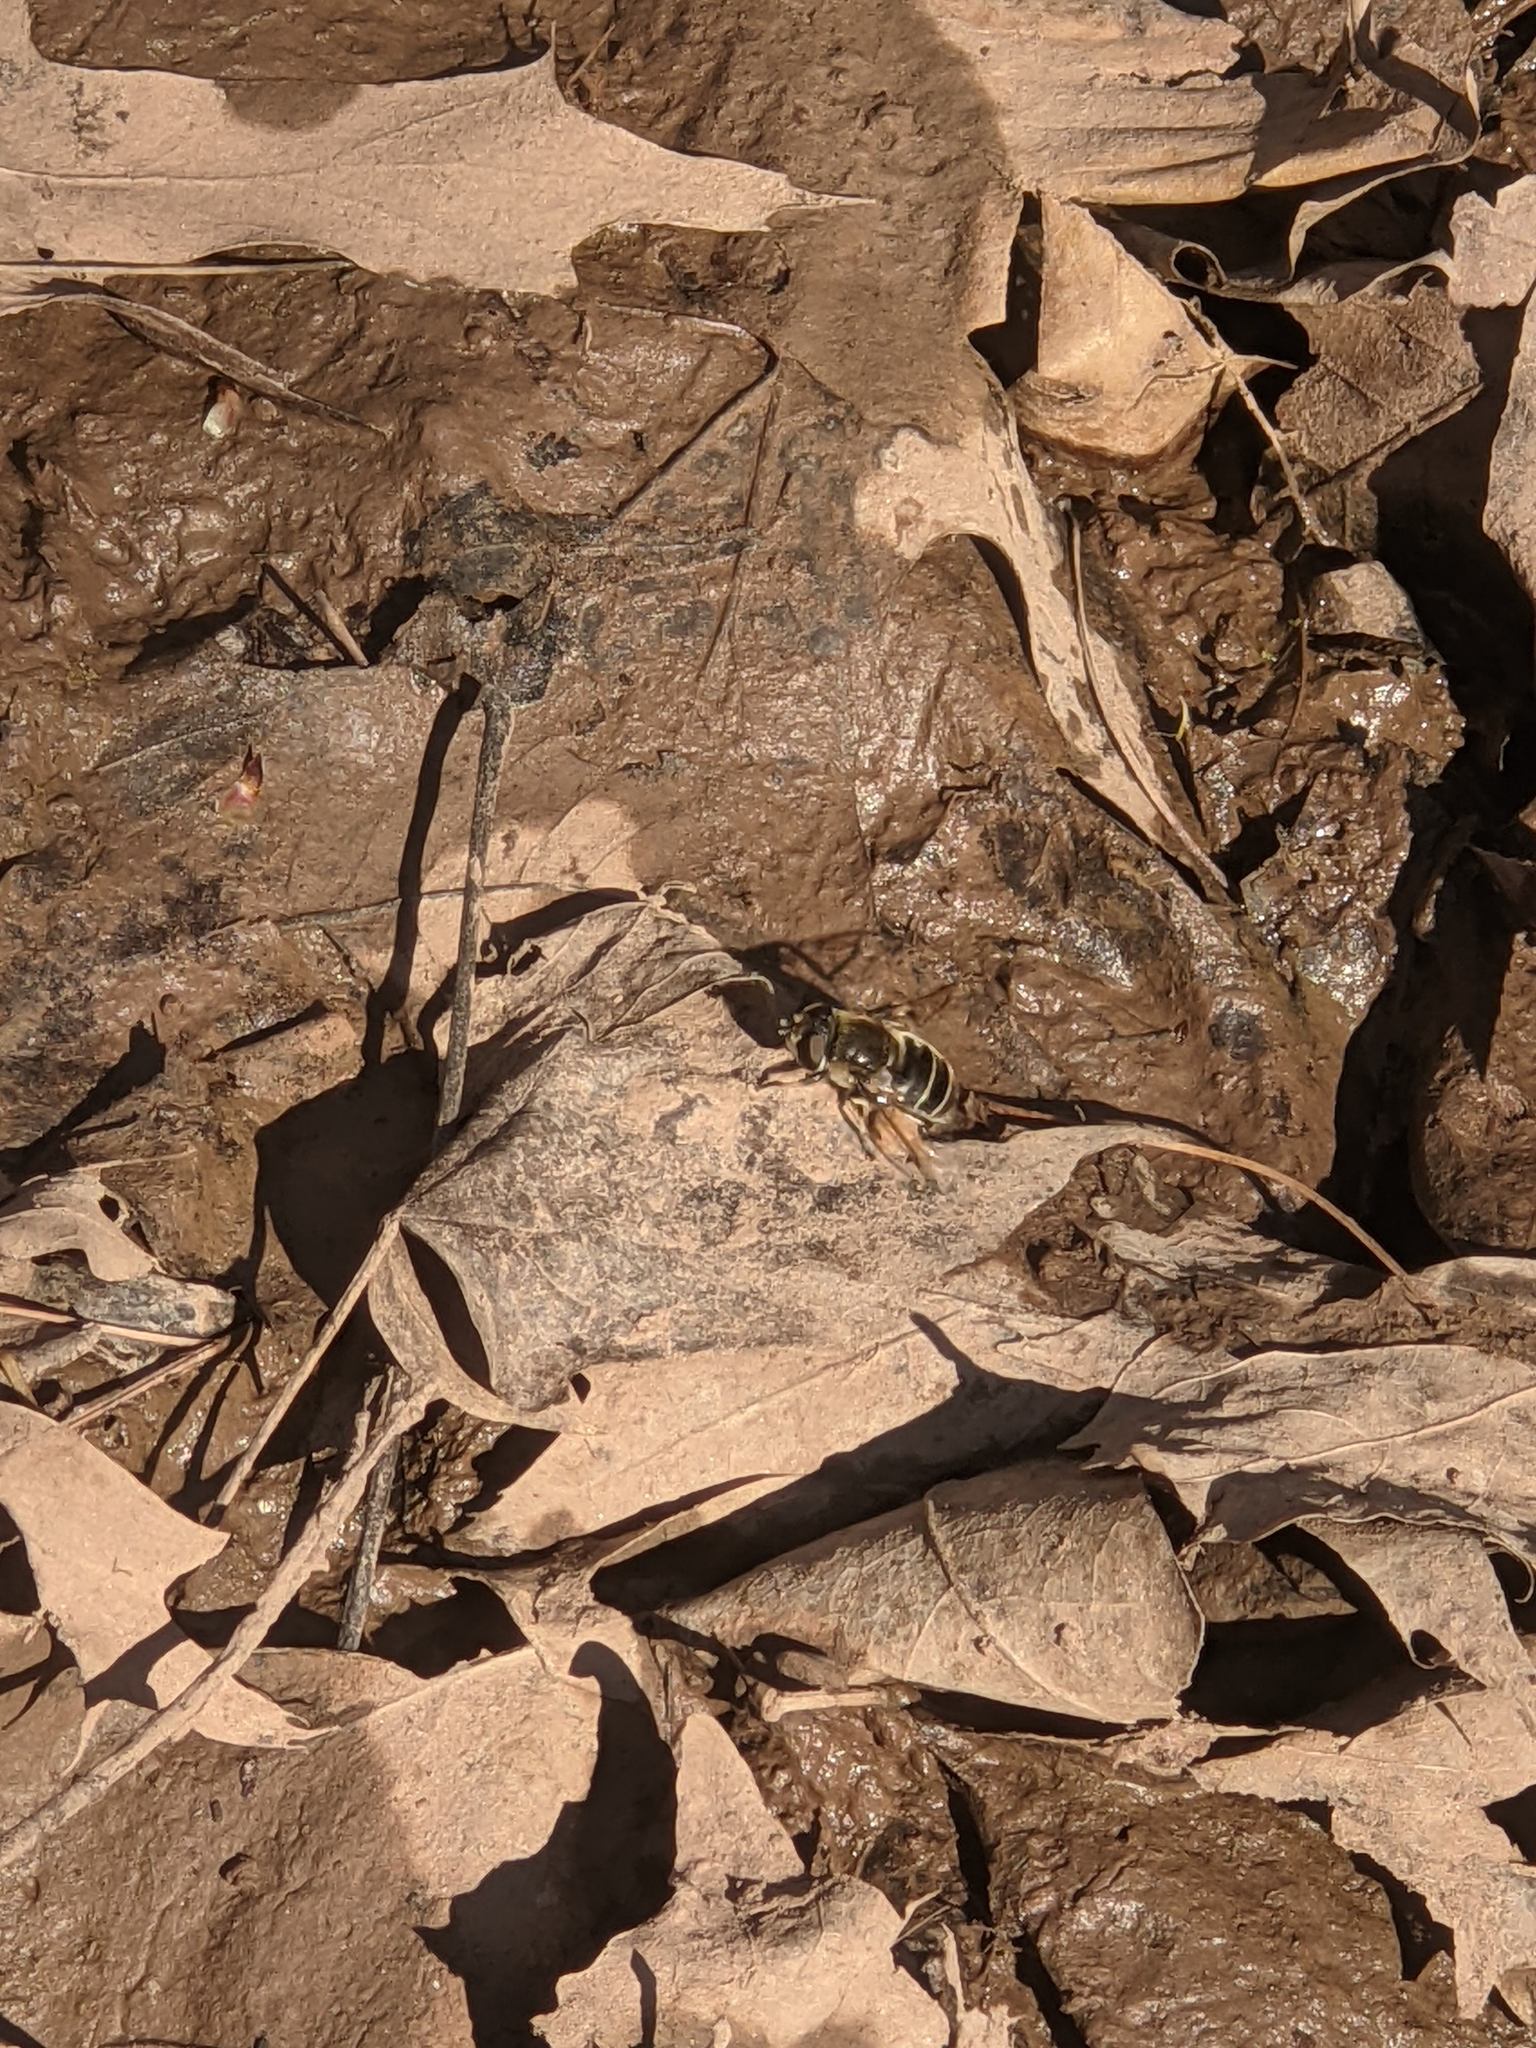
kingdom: Animalia
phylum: Arthropoda
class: Insecta
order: Diptera
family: Syrphidae
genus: Eristalis
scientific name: Eristalis dimidiata
